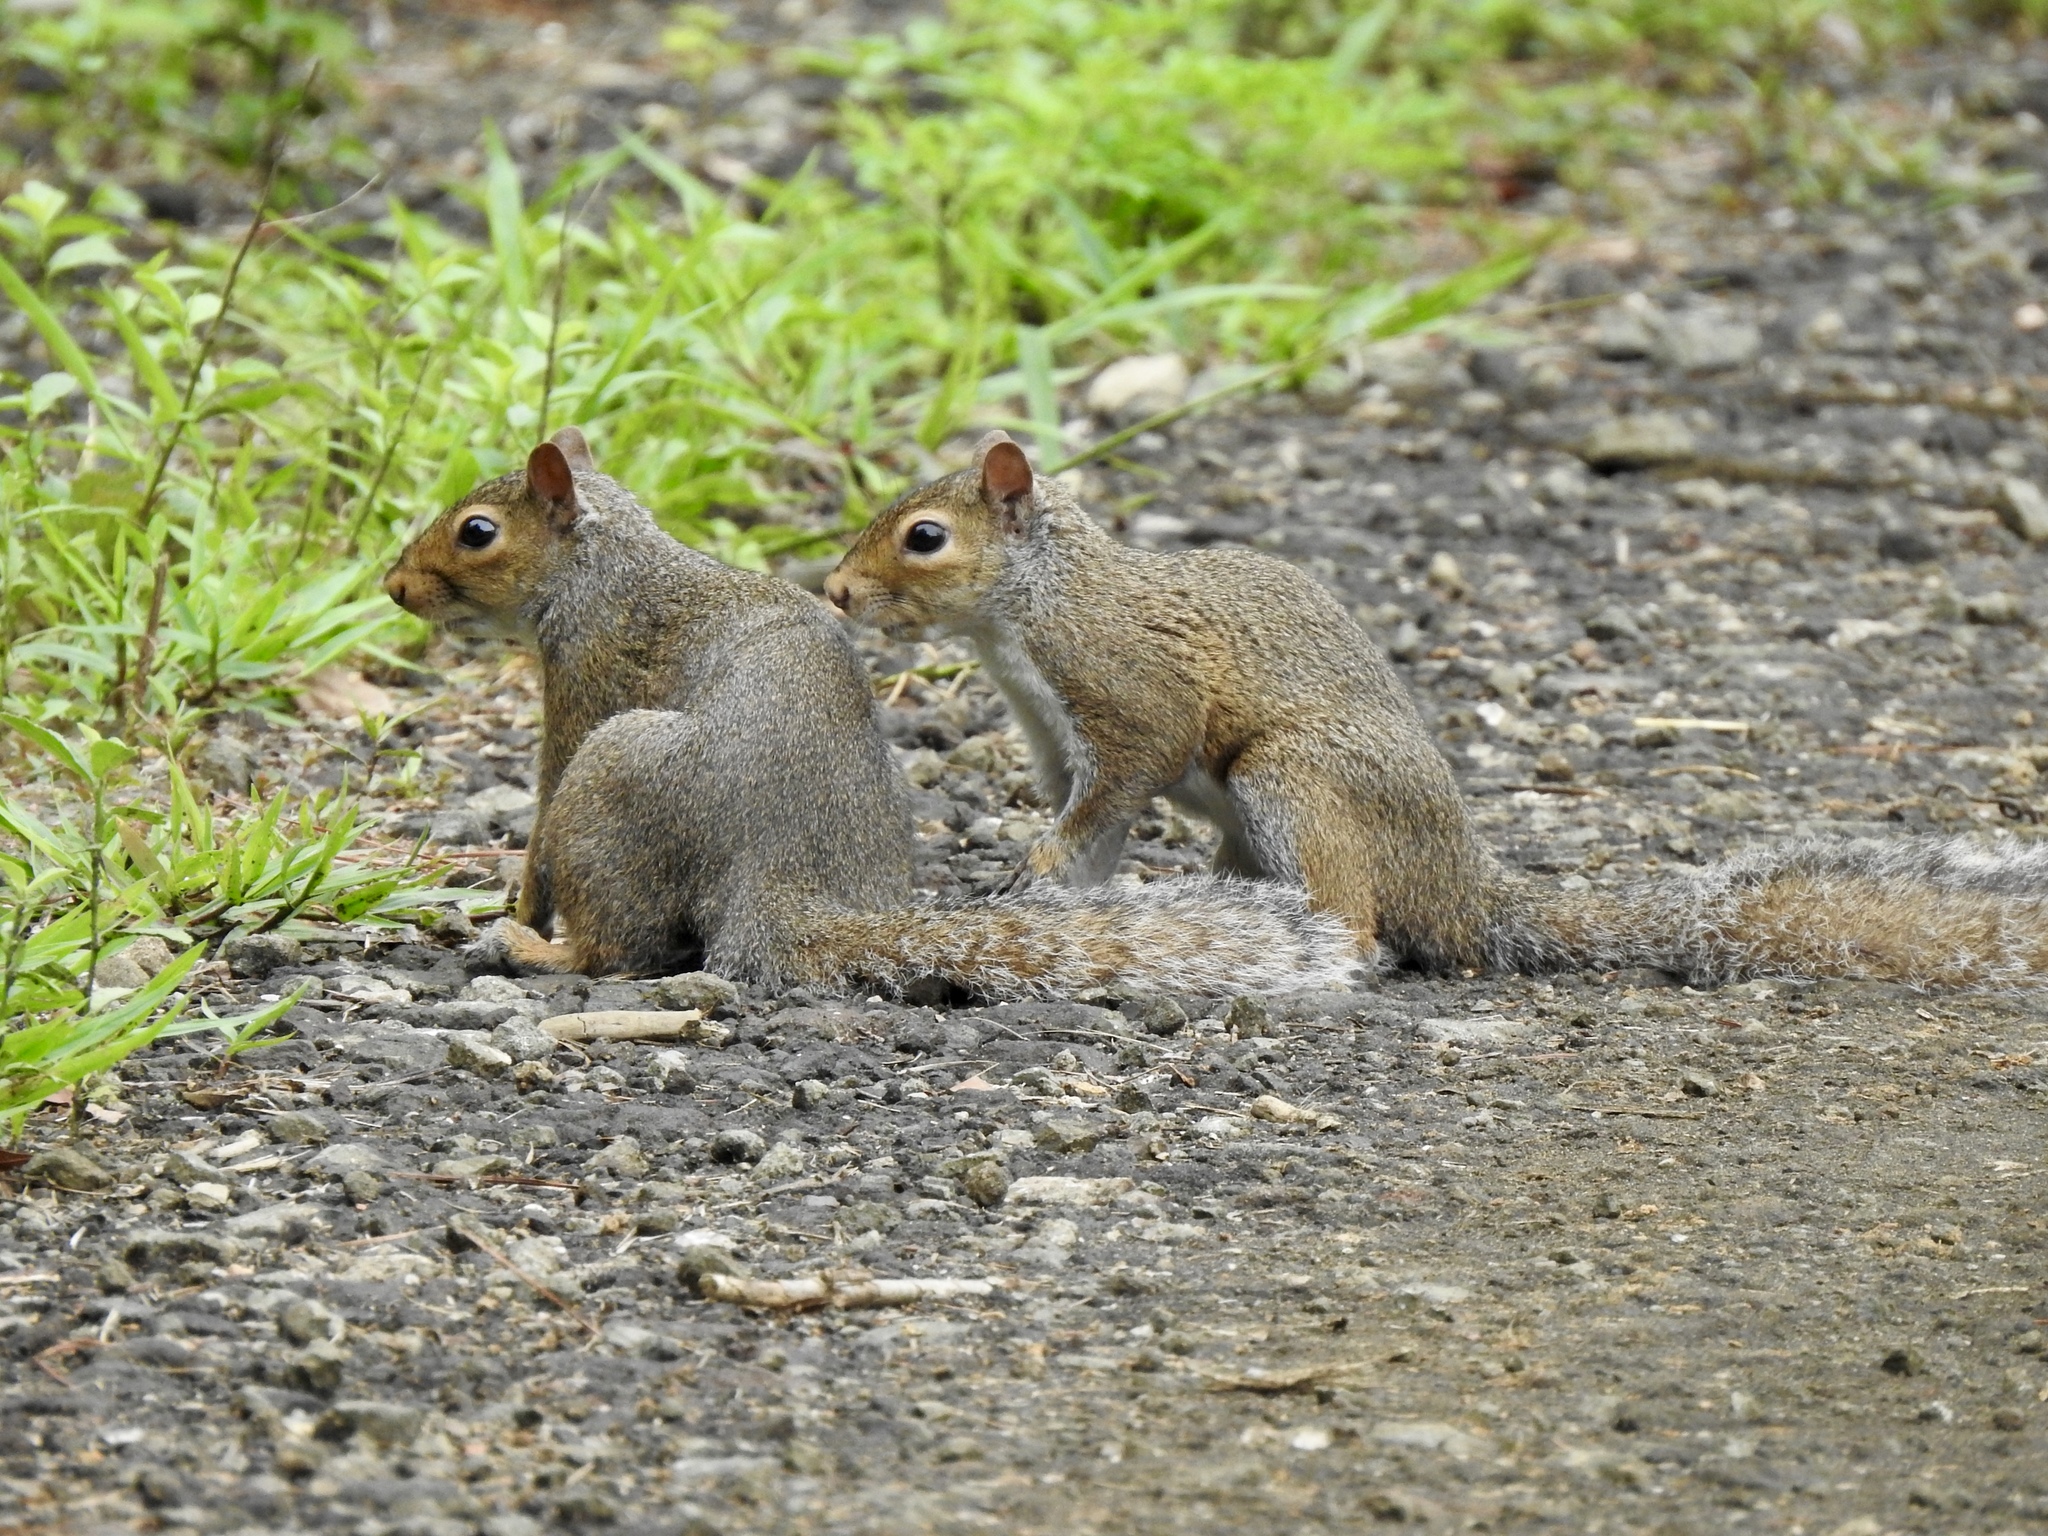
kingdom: Animalia
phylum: Chordata
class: Mammalia
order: Rodentia
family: Sciuridae
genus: Sciurus
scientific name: Sciurus carolinensis
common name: Eastern gray squirrel
